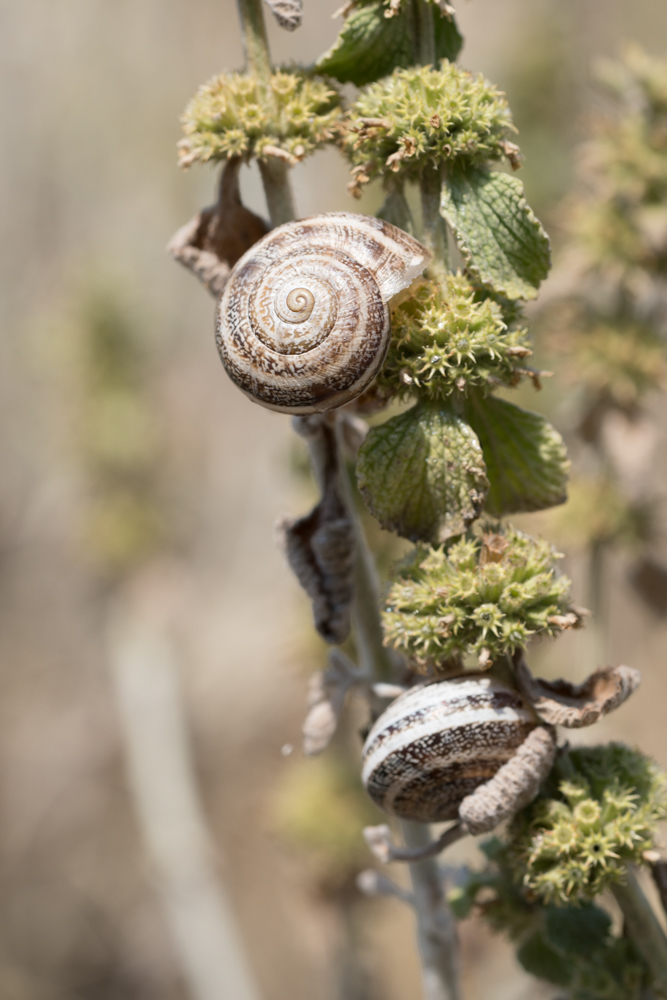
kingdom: Animalia
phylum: Mollusca
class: Gastropoda
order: Stylommatophora
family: Helicidae
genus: Otala
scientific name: Otala lactea
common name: Milk snail
